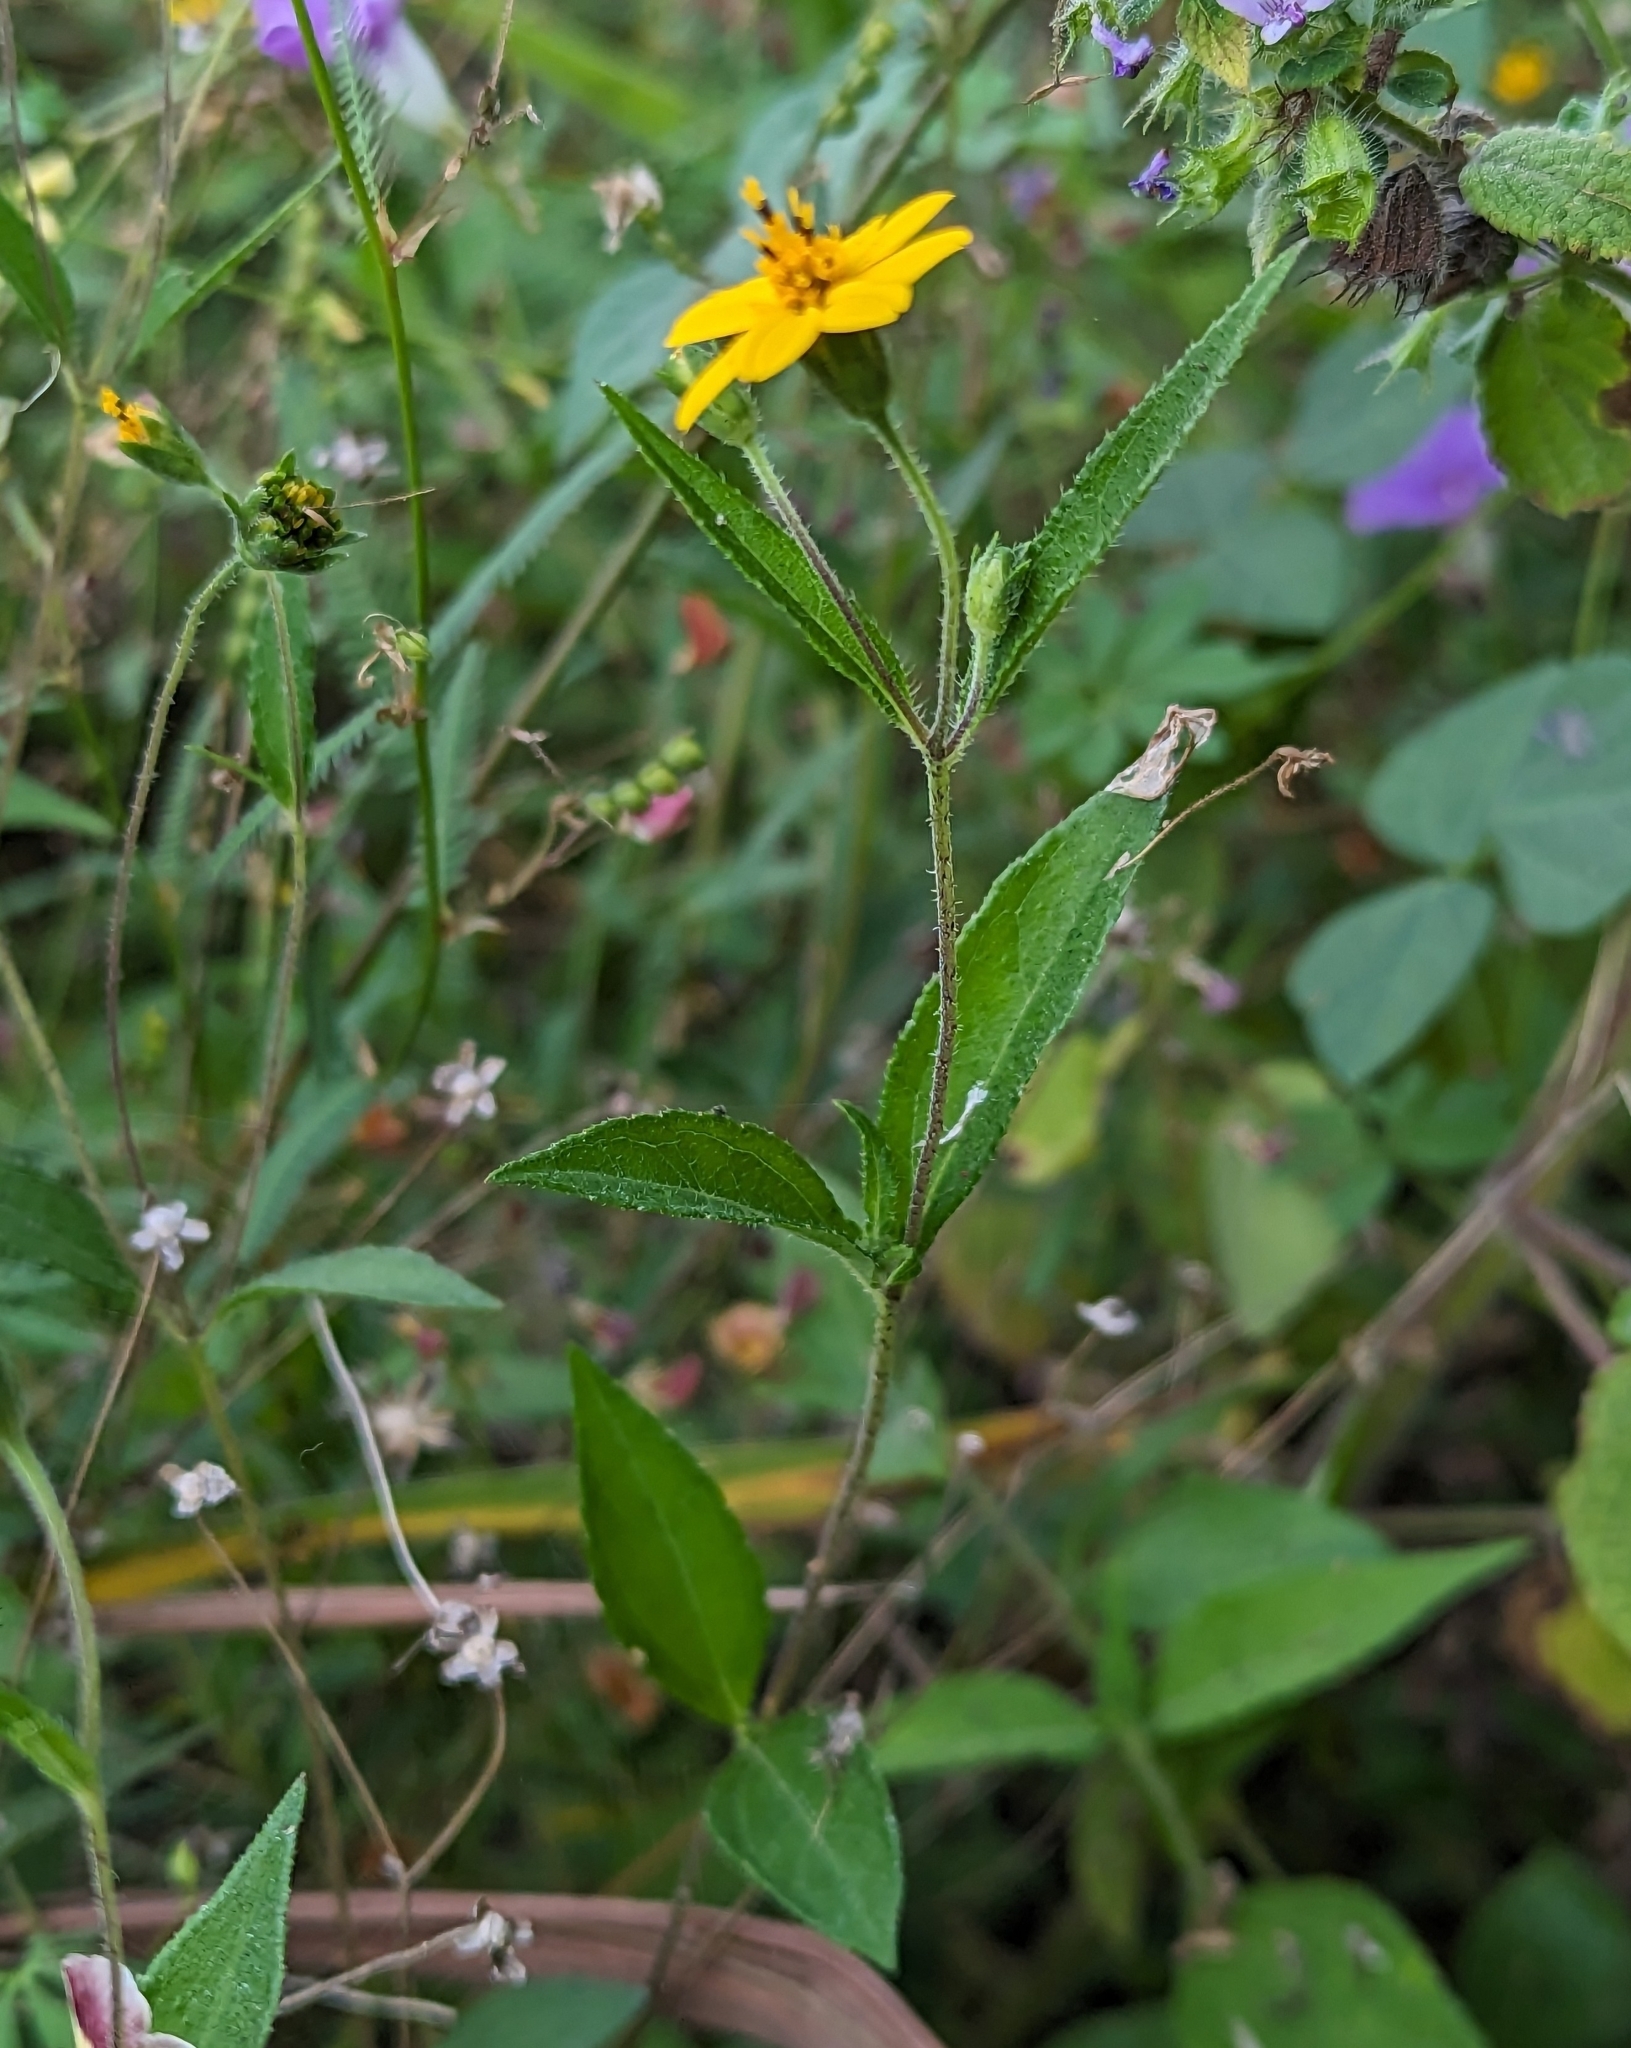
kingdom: Plantae
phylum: Tracheophyta
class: Magnoliopsida
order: Asterales
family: Asteraceae
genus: Wedelia
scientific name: Wedelia acapulcensis
